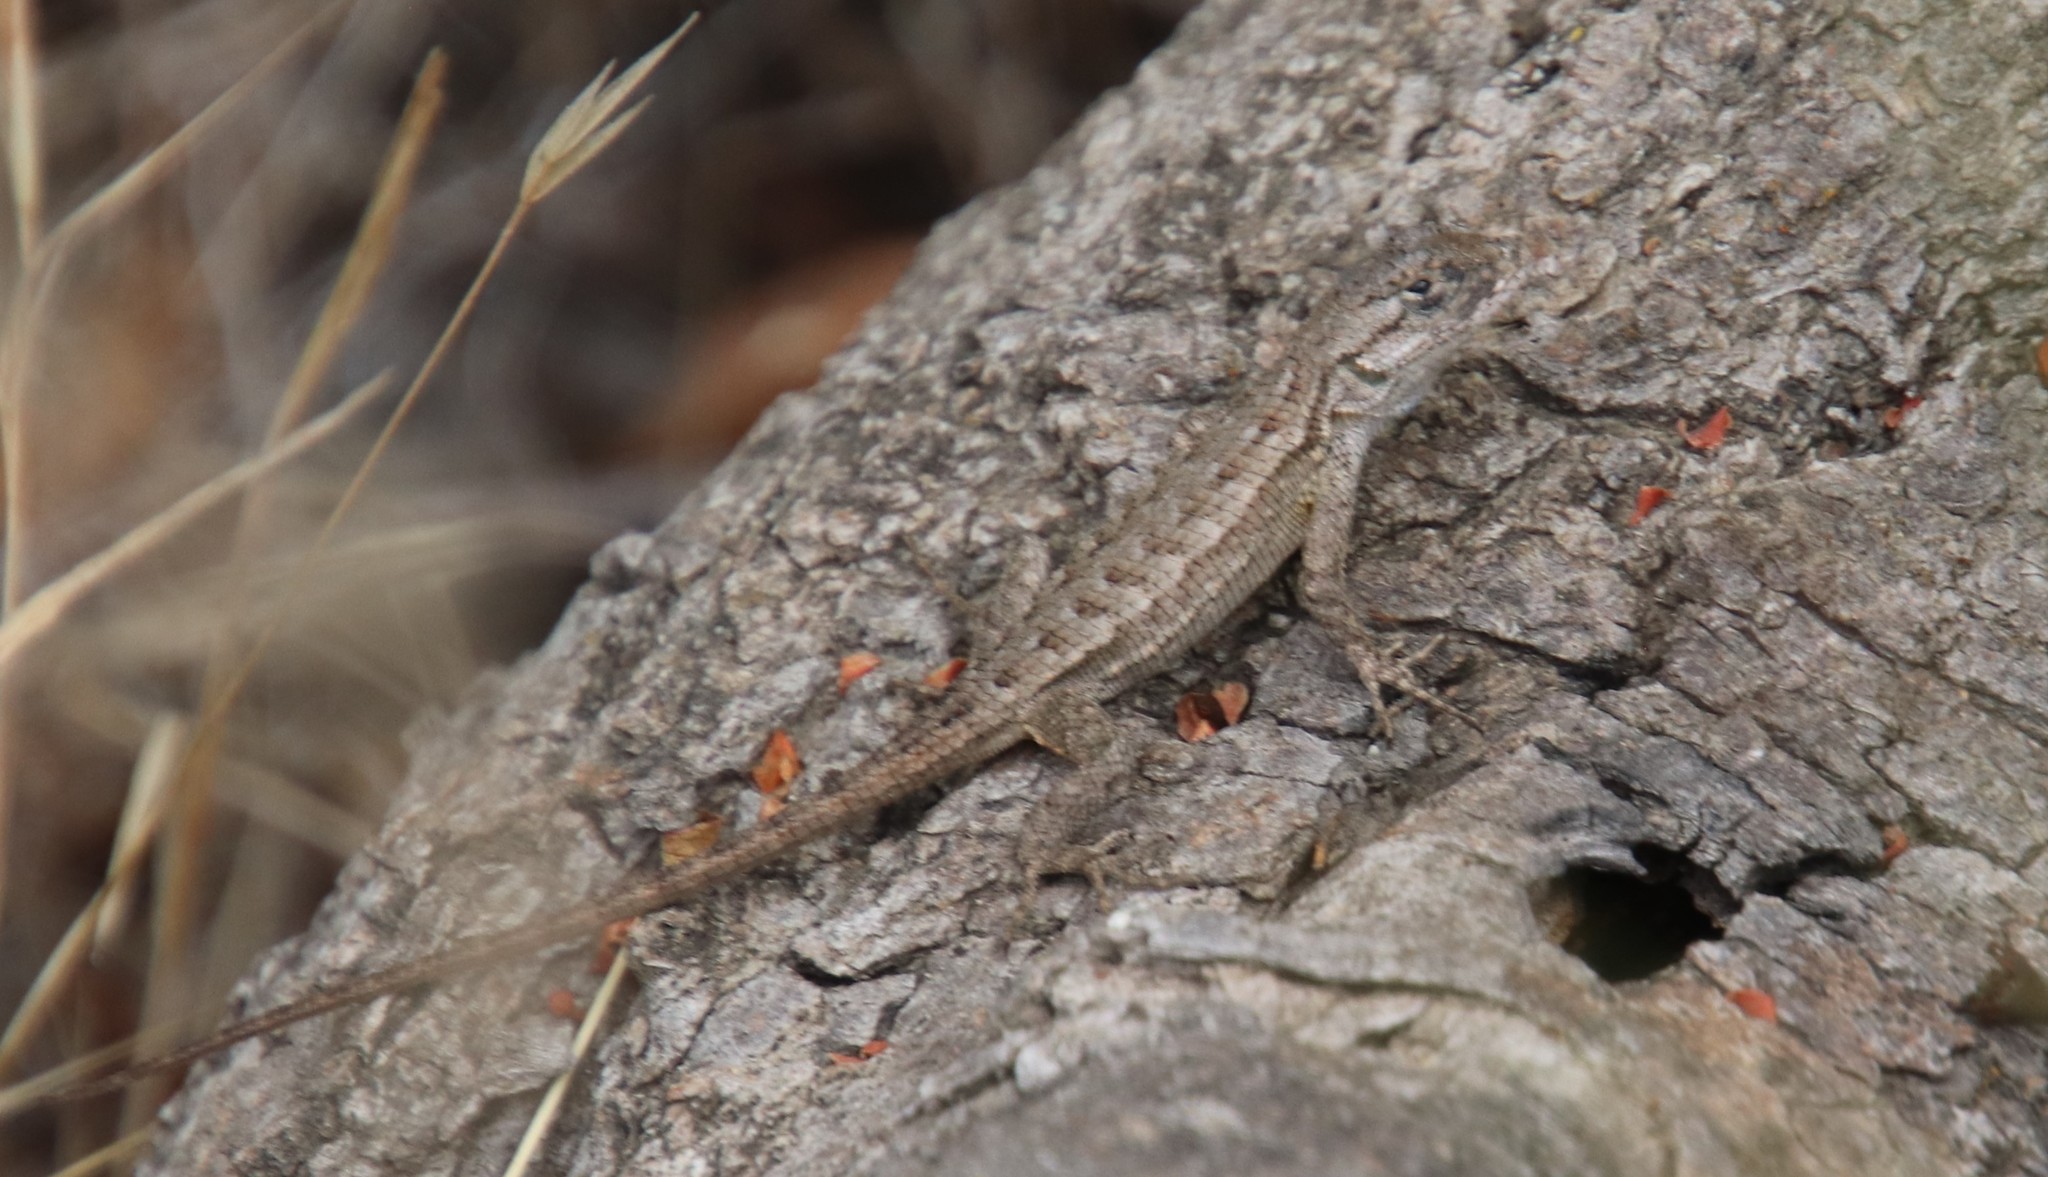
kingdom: Animalia
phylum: Chordata
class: Squamata
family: Phrynosomatidae
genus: Sceloporus
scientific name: Sceloporus occidentalis
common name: Western fence lizard
